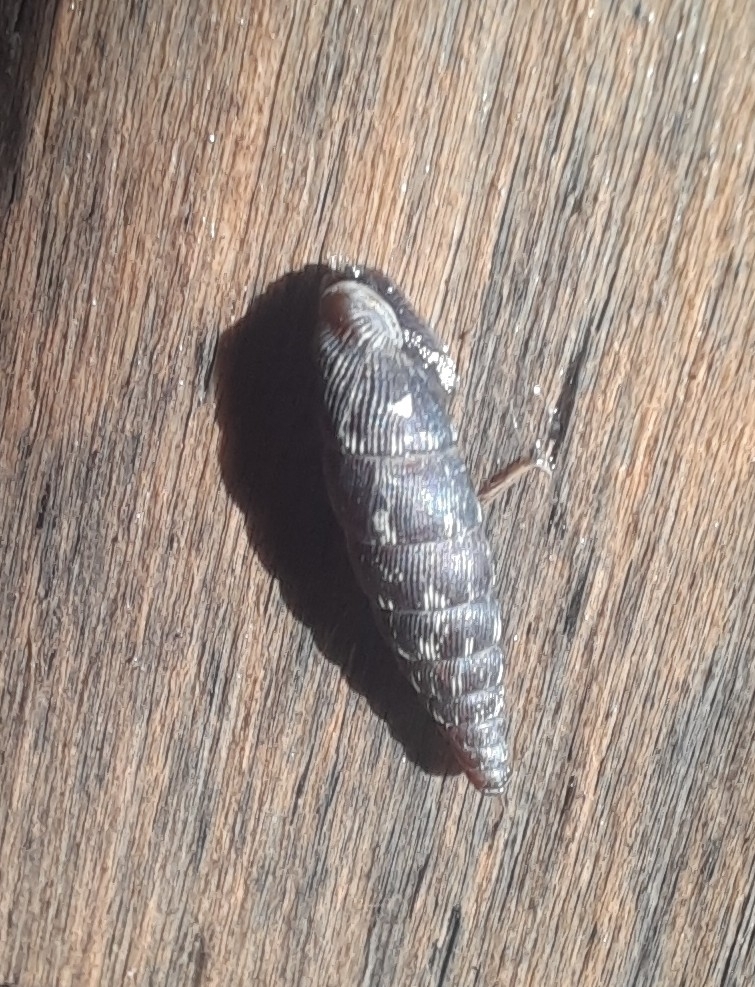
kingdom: Animalia
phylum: Mollusca
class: Gastropoda
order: Stylommatophora
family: Clausiliidae
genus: Clausilia
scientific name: Clausilia bidentata
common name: Two-toothed door snail
